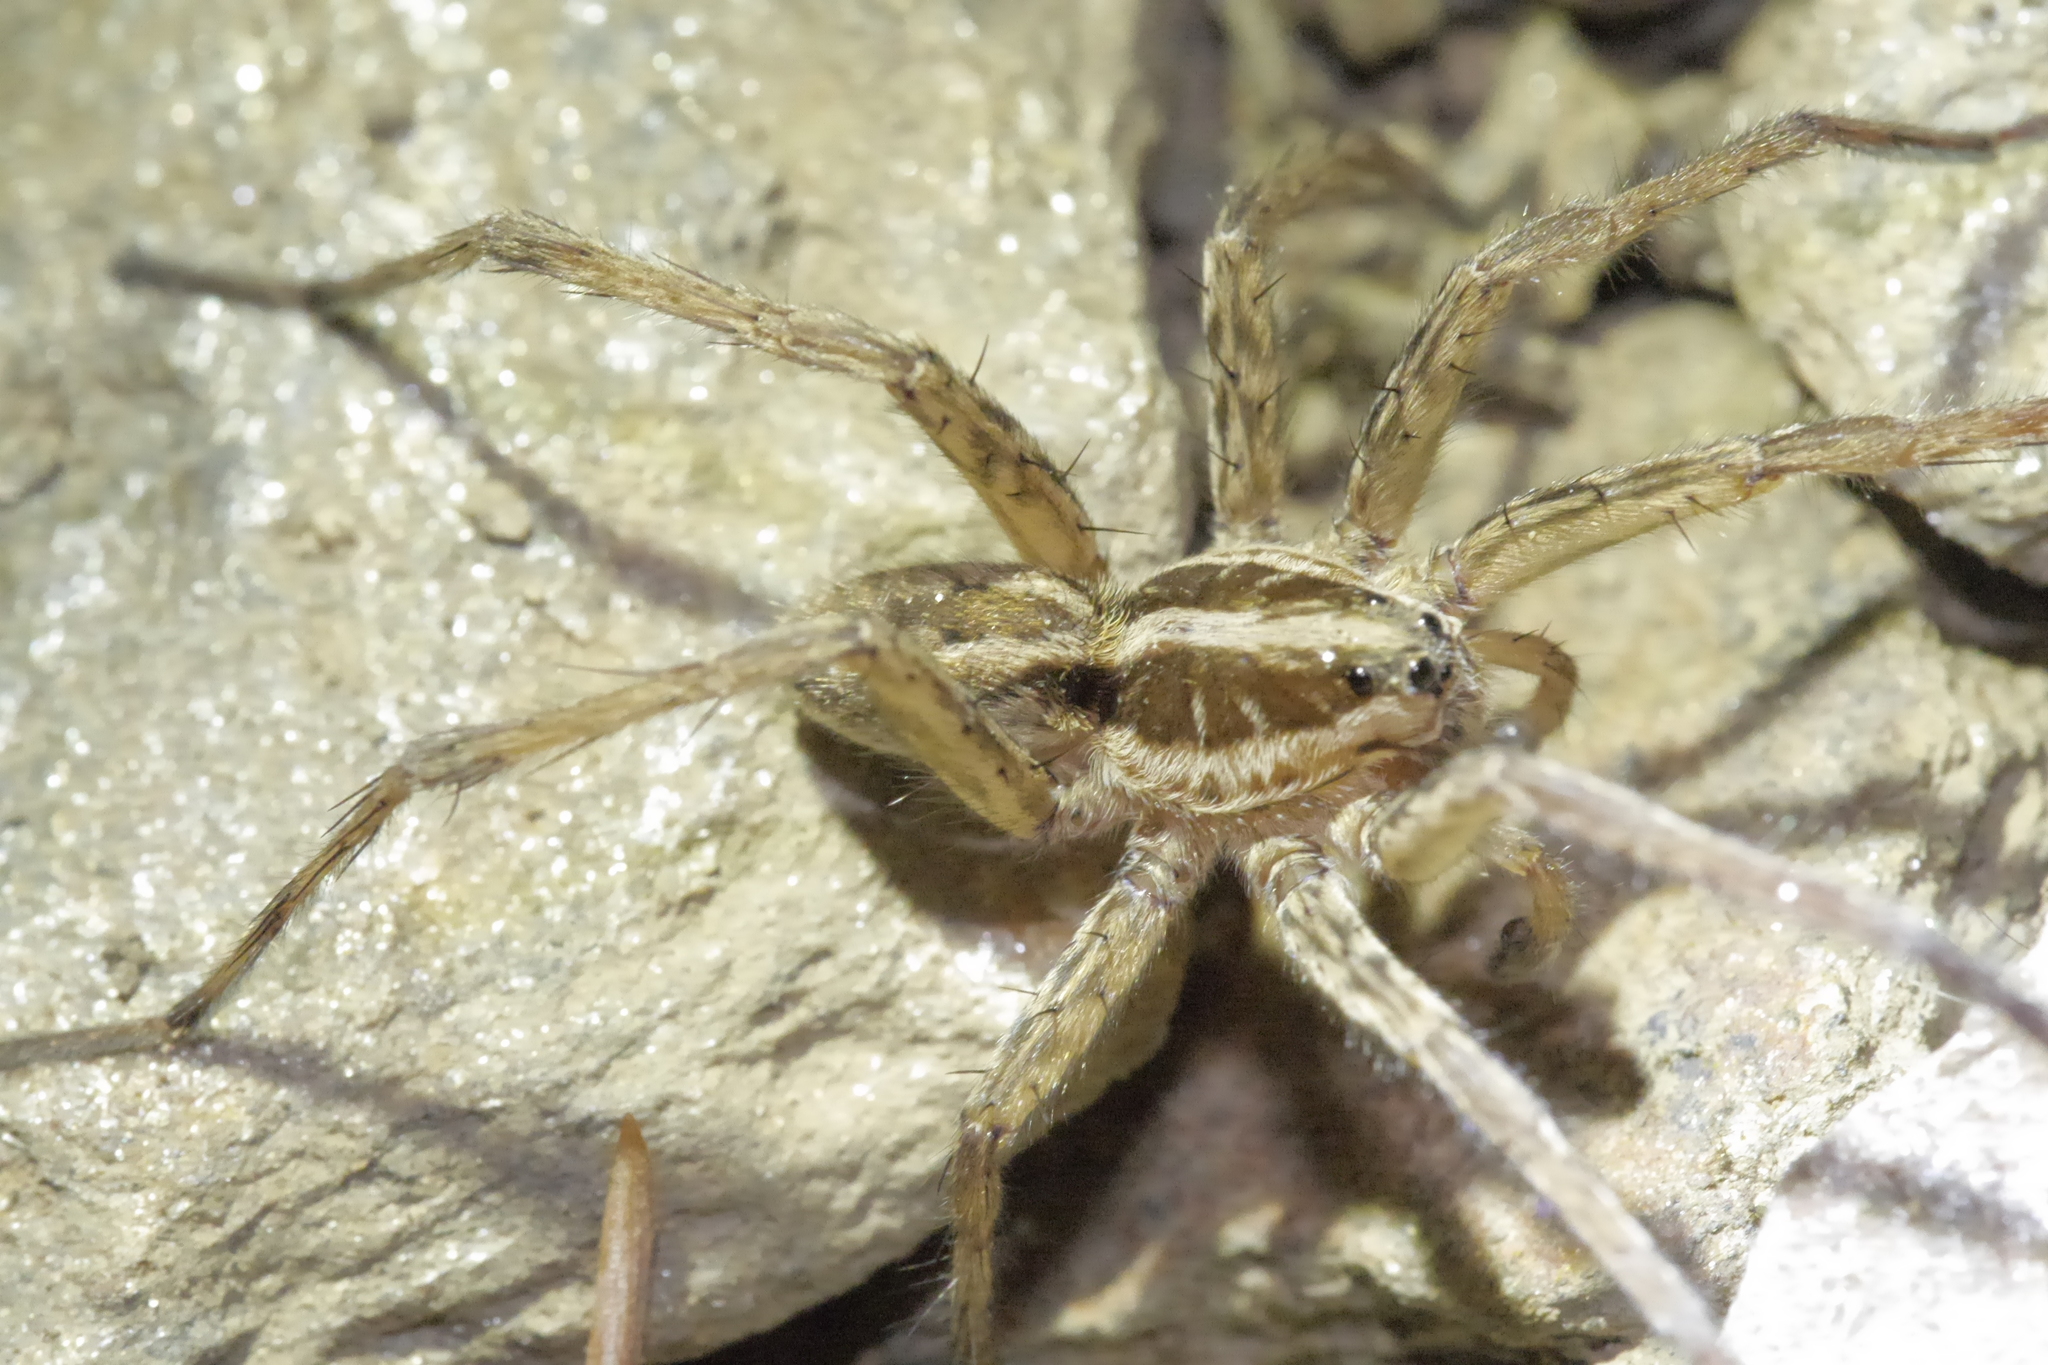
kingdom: Animalia
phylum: Arthropoda
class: Arachnida
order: Araneae
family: Lycosidae
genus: Hogna
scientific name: Hogna radiata
